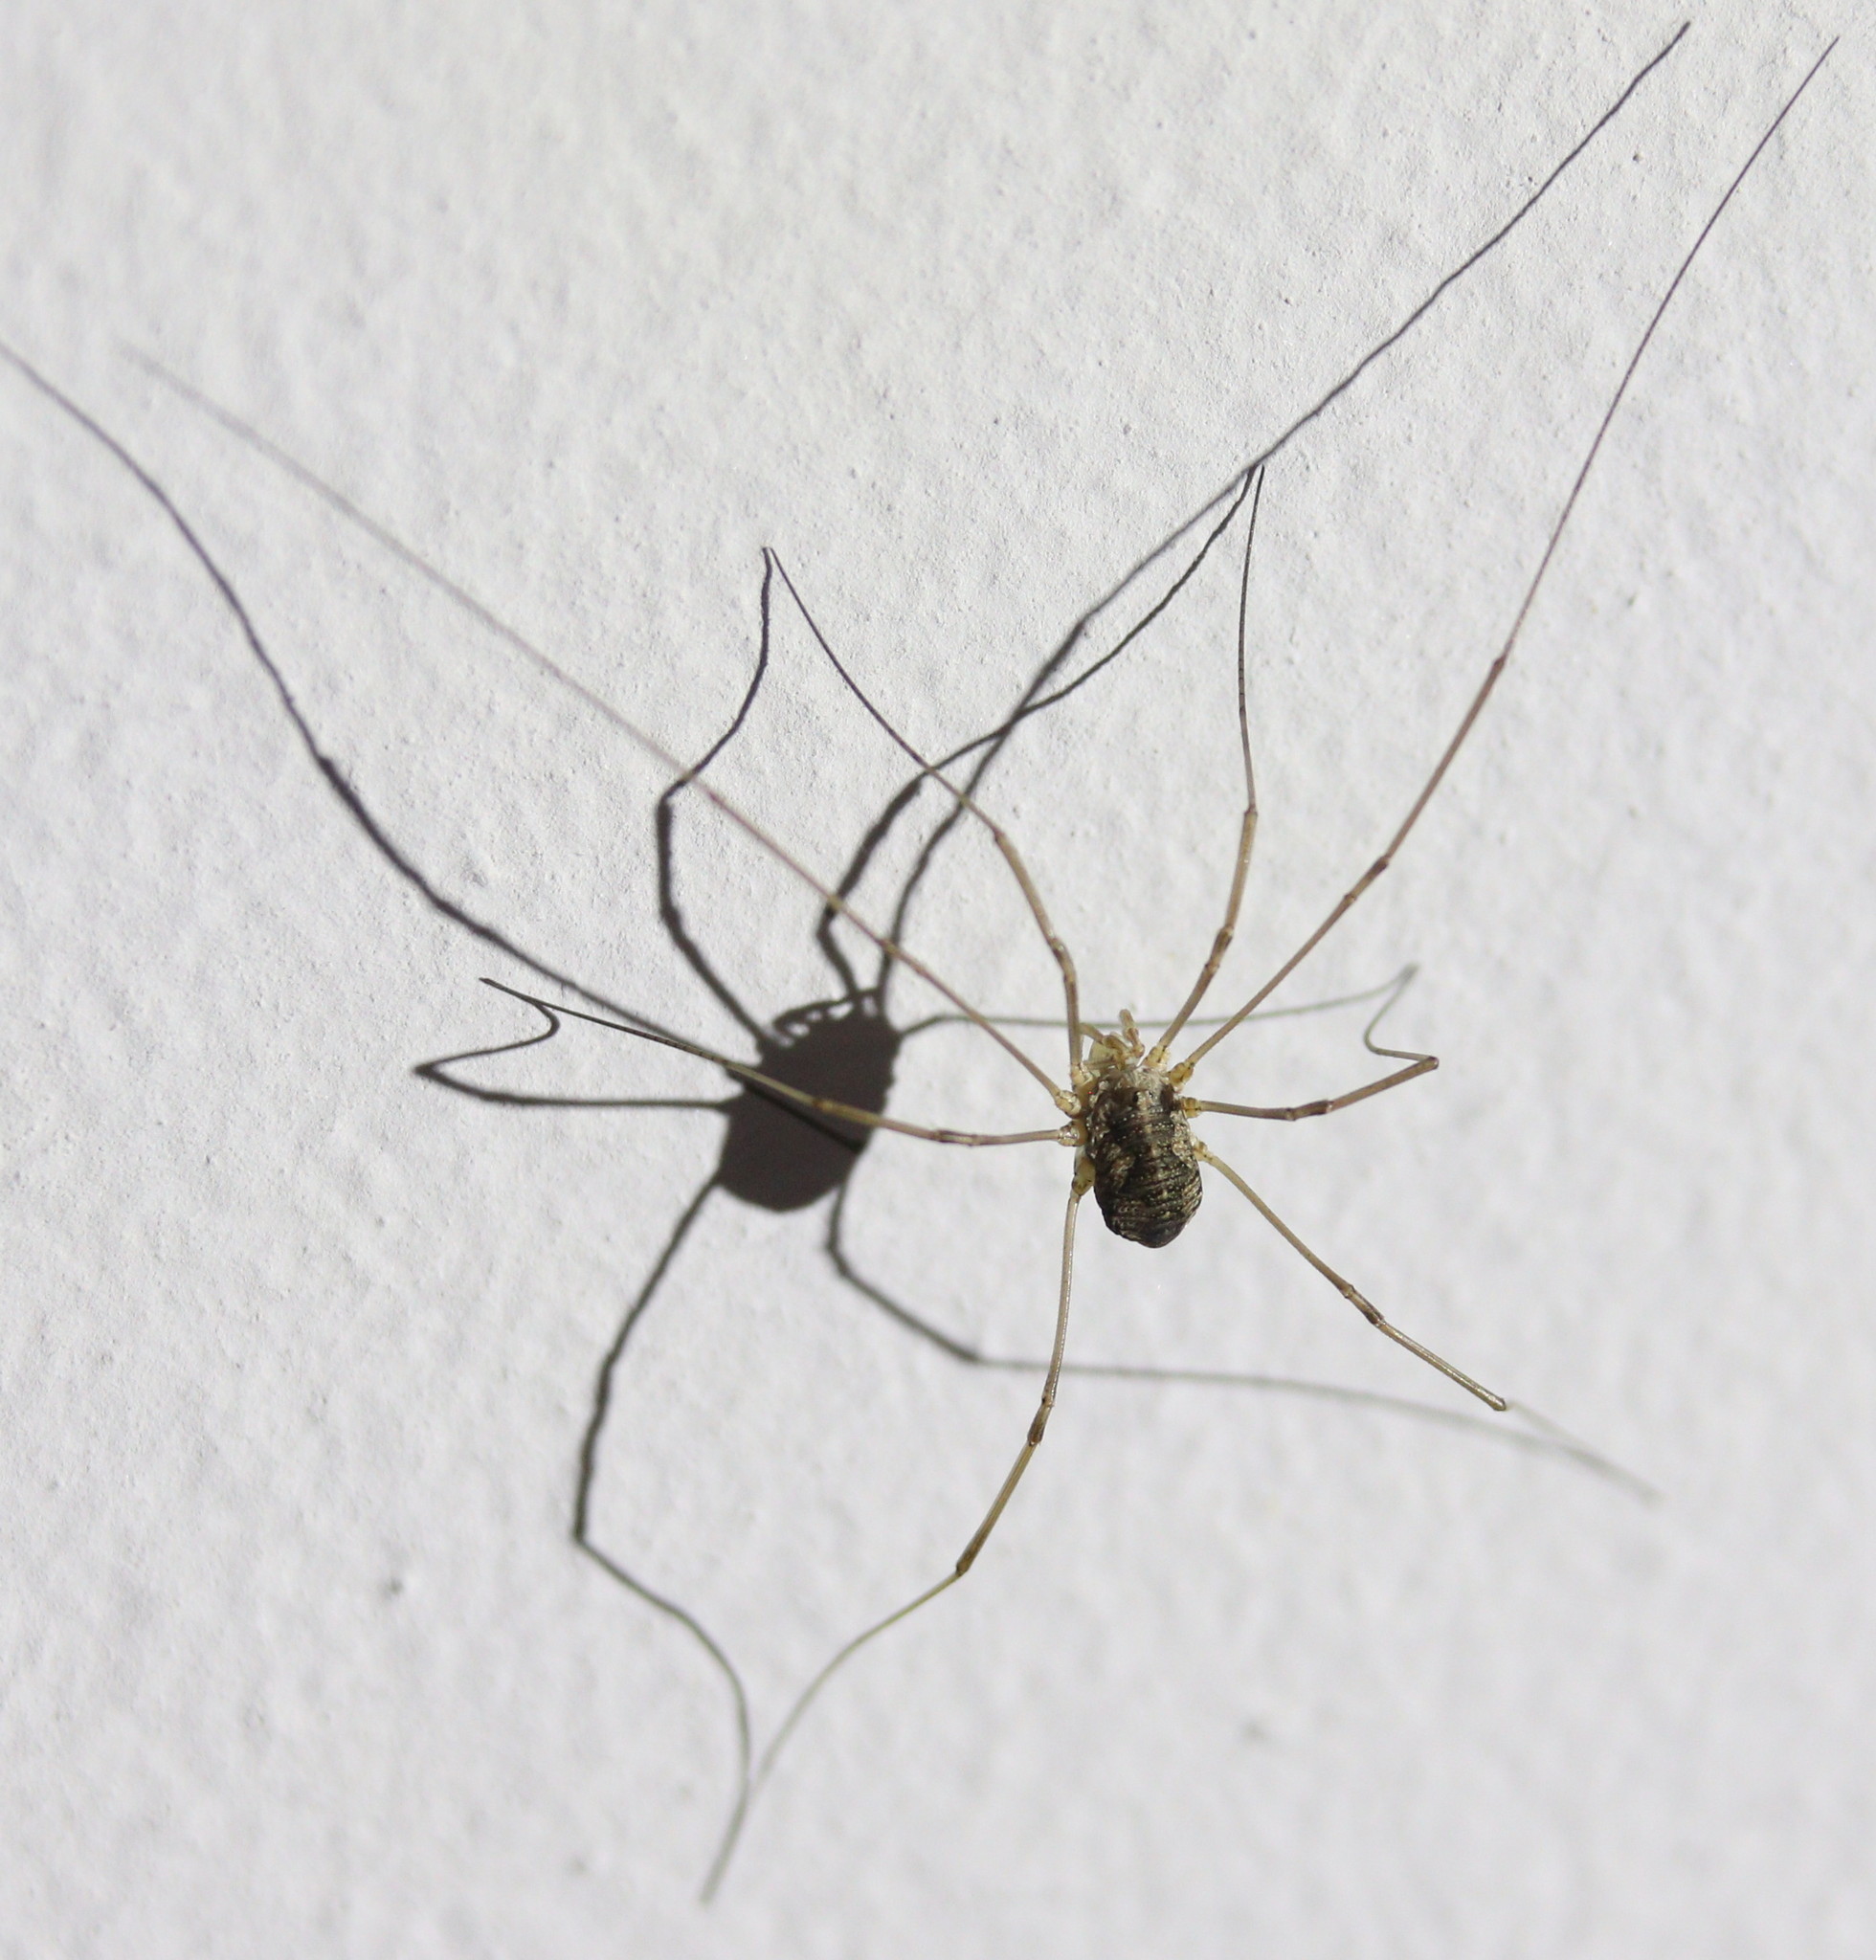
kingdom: Animalia
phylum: Arthropoda
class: Arachnida
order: Opiliones
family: Phalangiidae
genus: Phalangium
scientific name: Phalangium opilio
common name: Daddy longleg
